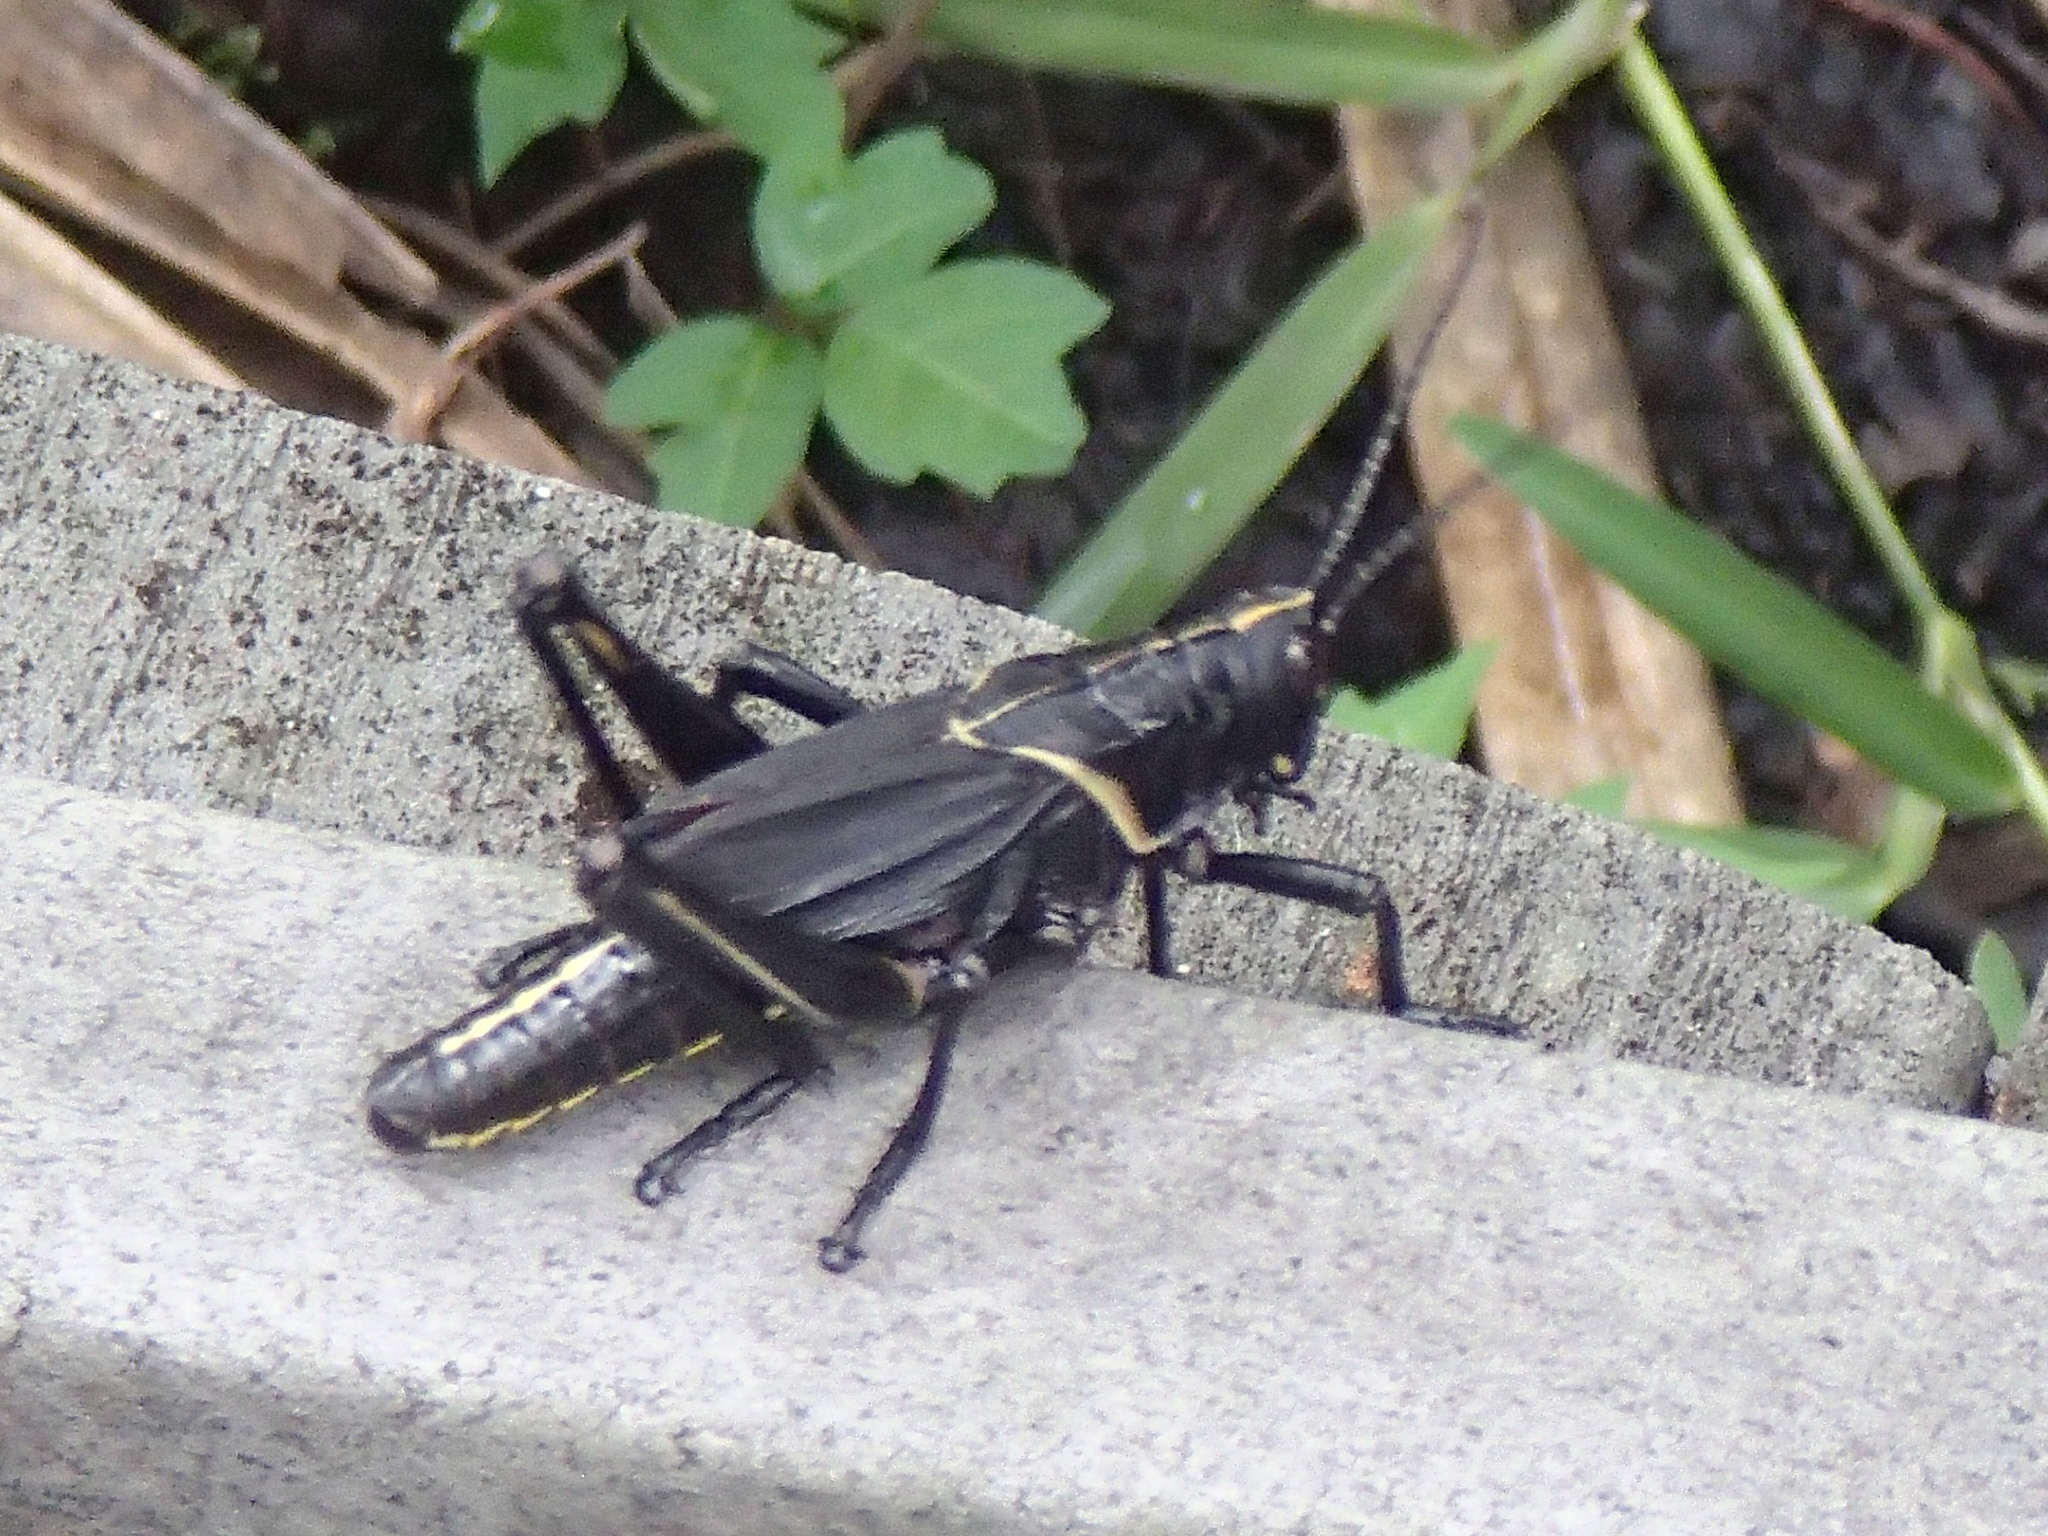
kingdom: Animalia
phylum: Arthropoda
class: Insecta
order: Orthoptera
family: Romaleidae
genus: Romalea
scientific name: Romalea microptera
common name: Eastern lubber grasshopper
